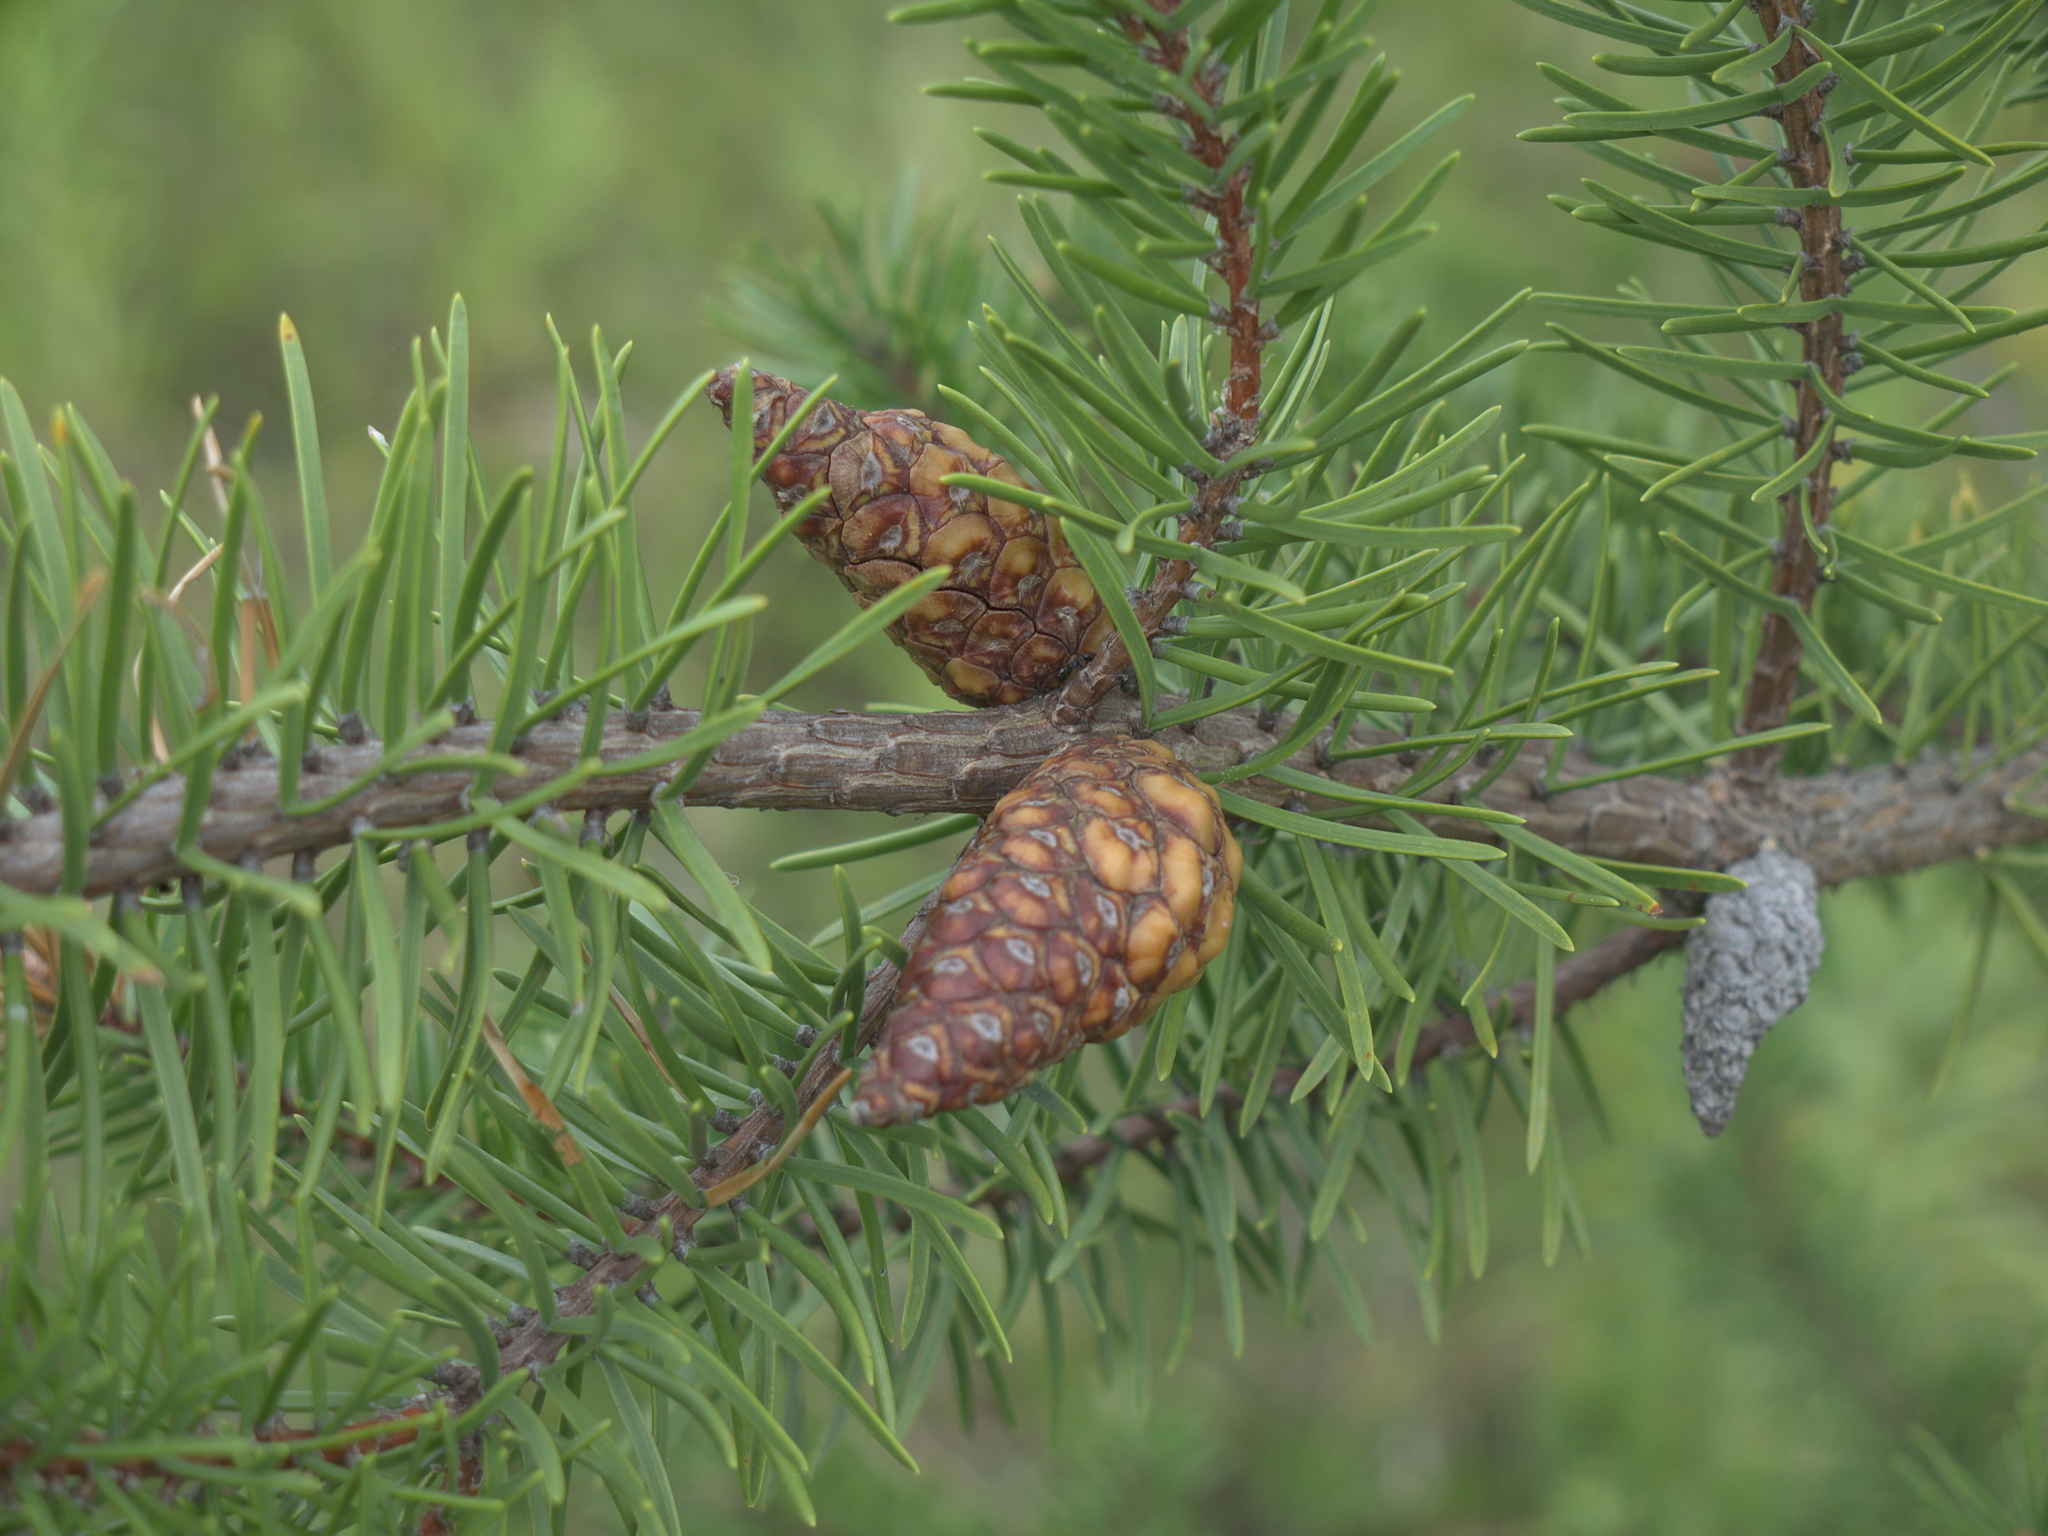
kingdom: Plantae
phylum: Tracheophyta
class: Pinopsida
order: Pinales
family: Pinaceae
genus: Pinus
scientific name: Pinus banksiana
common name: Jack pine
